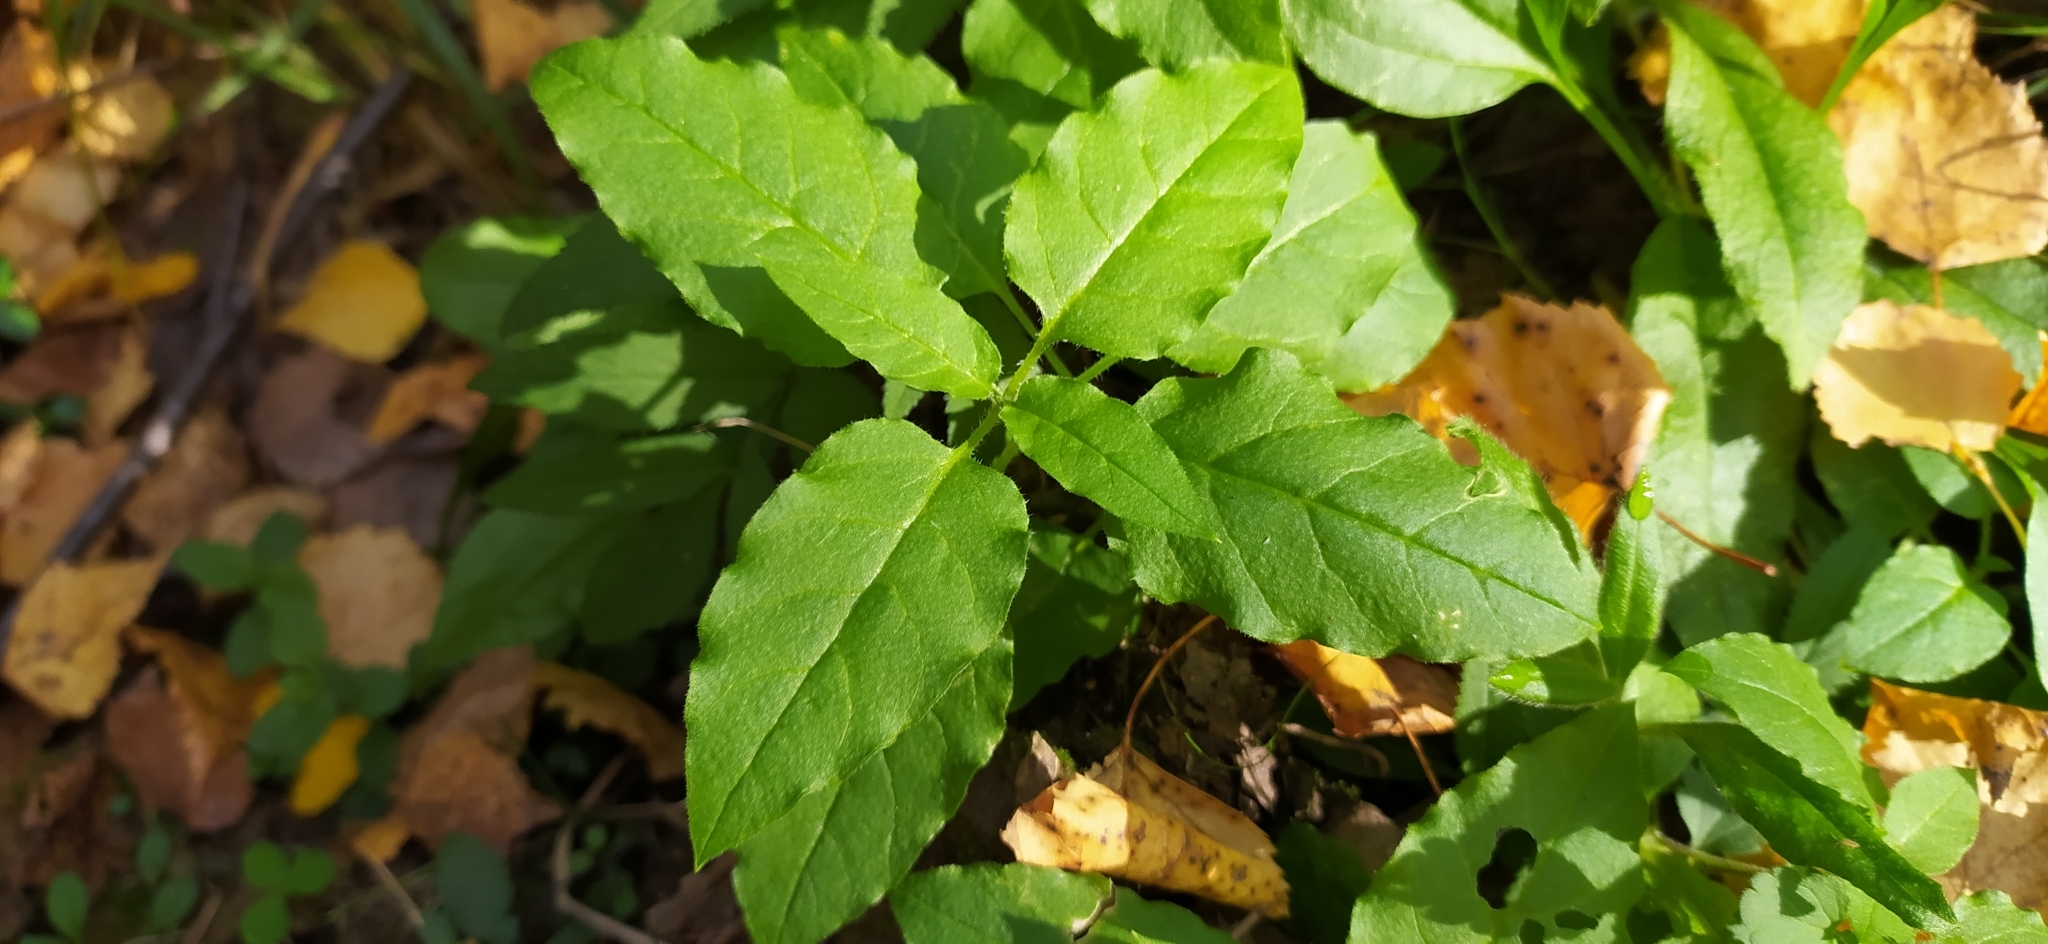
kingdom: Plantae
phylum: Tracheophyta
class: Magnoliopsida
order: Caryophyllales
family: Caryophyllaceae
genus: Stellaria
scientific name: Stellaria bungeana
